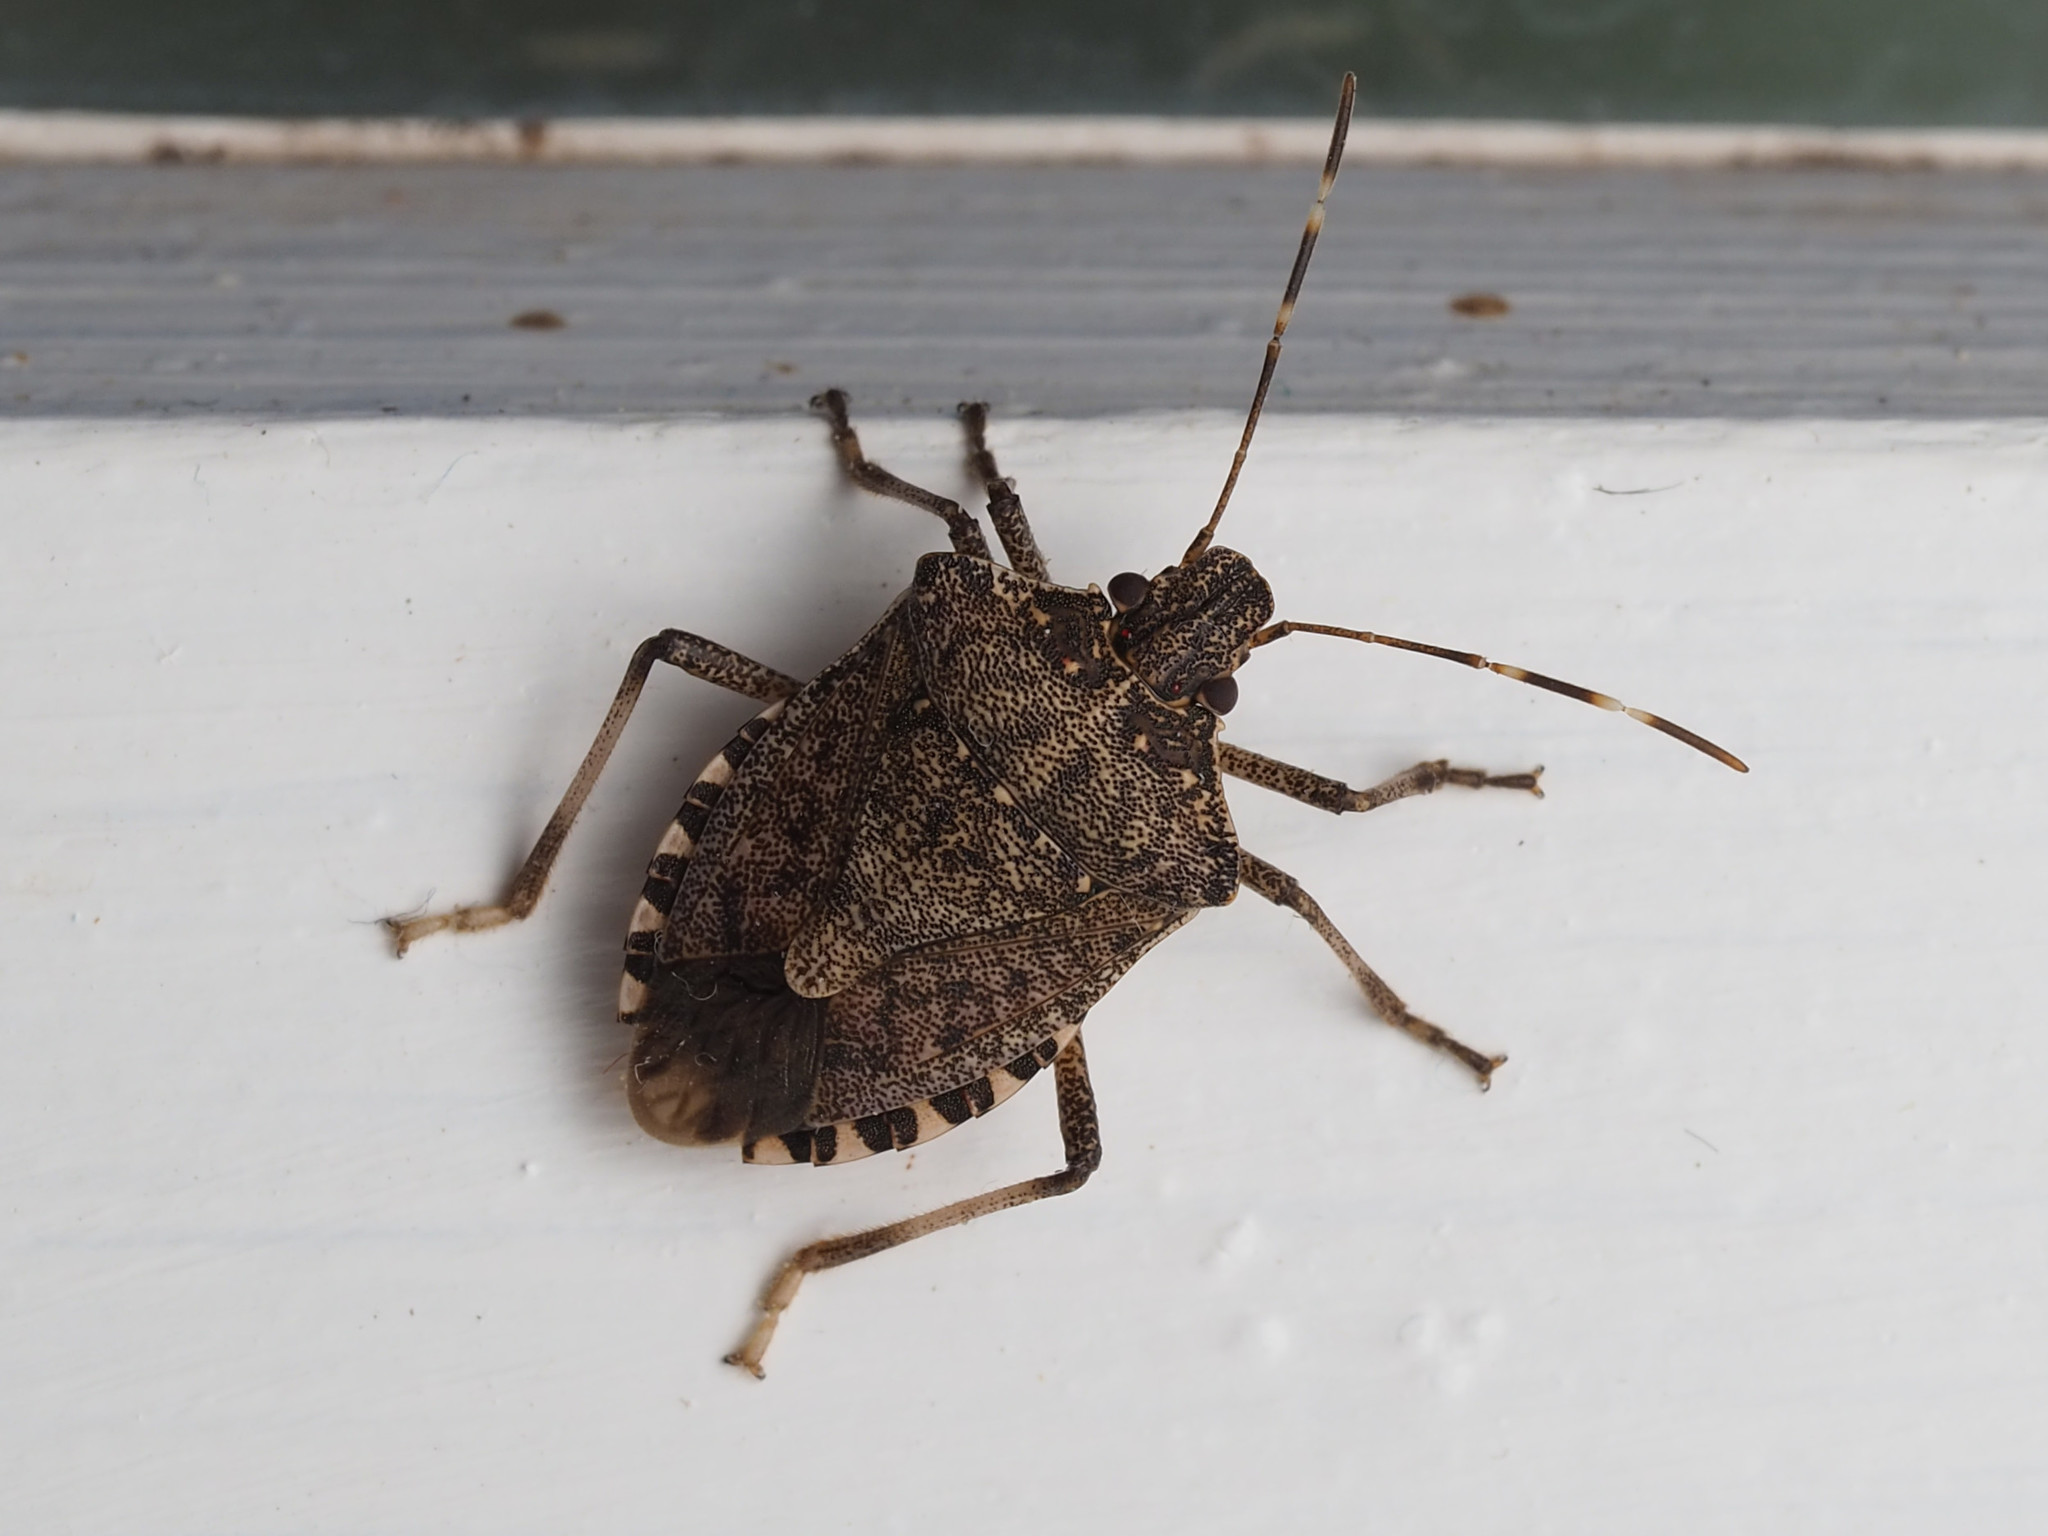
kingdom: Animalia
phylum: Arthropoda
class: Insecta
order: Hemiptera
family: Pentatomidae
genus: Halyomorpha
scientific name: Halyomorpha halys
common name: Brown marmorated stink bug
